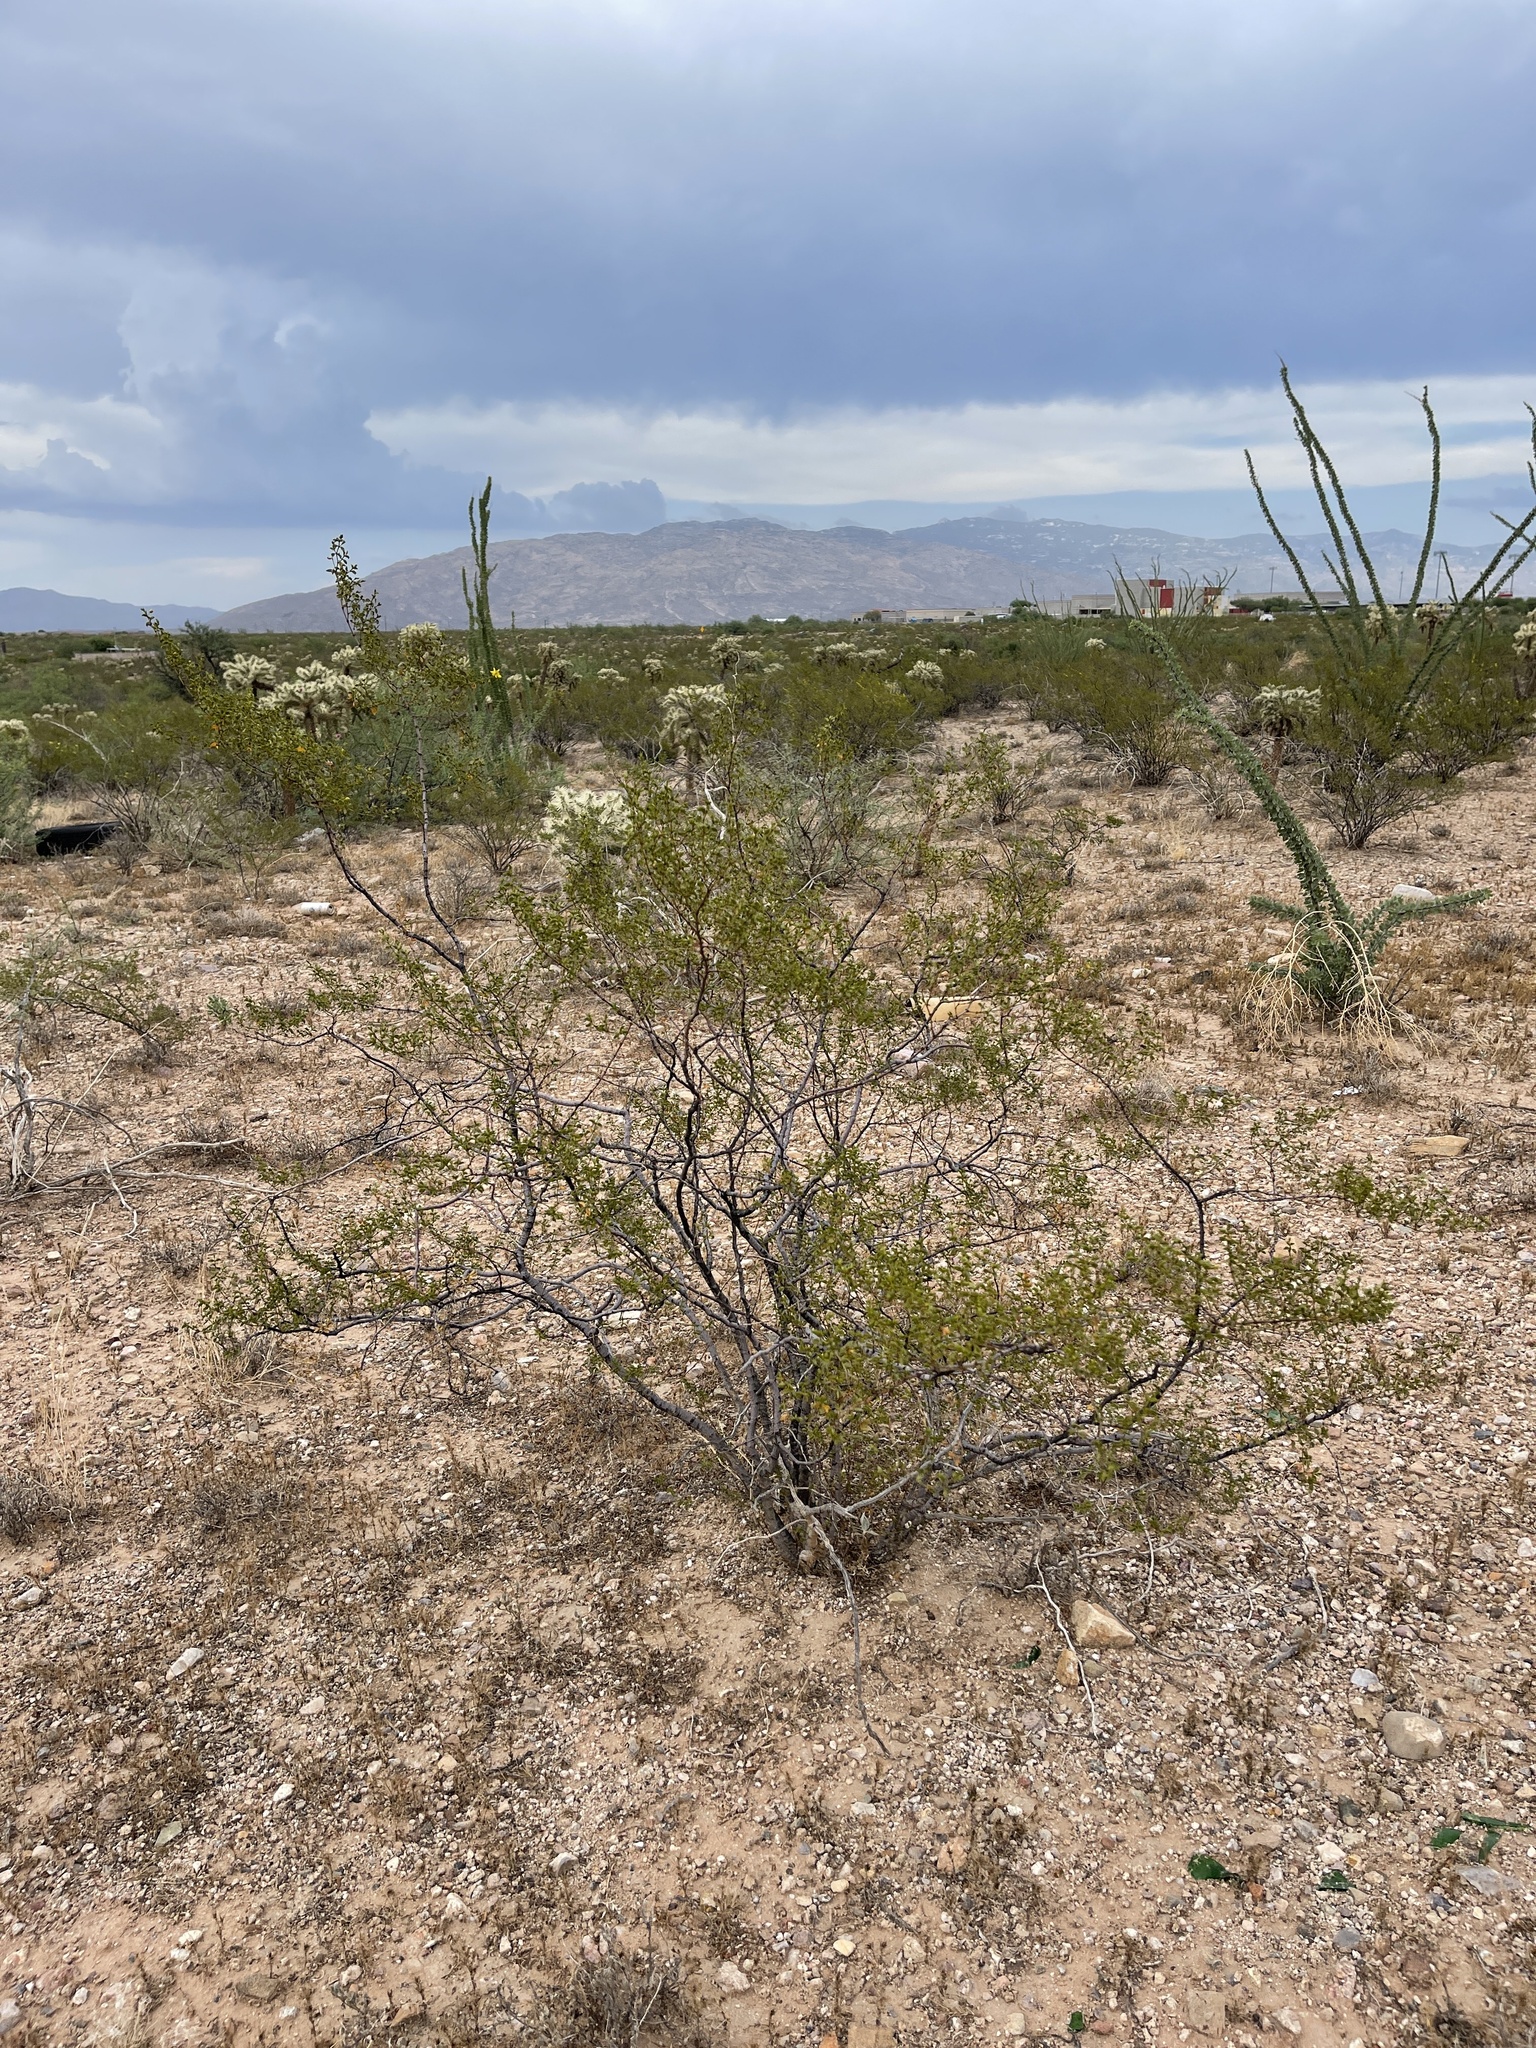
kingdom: Plantae
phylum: Tracheophyta
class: Magnoliopsida
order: Zygophyllales
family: Zygophyllaceae
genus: Larrea
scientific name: Larrea tridentata
